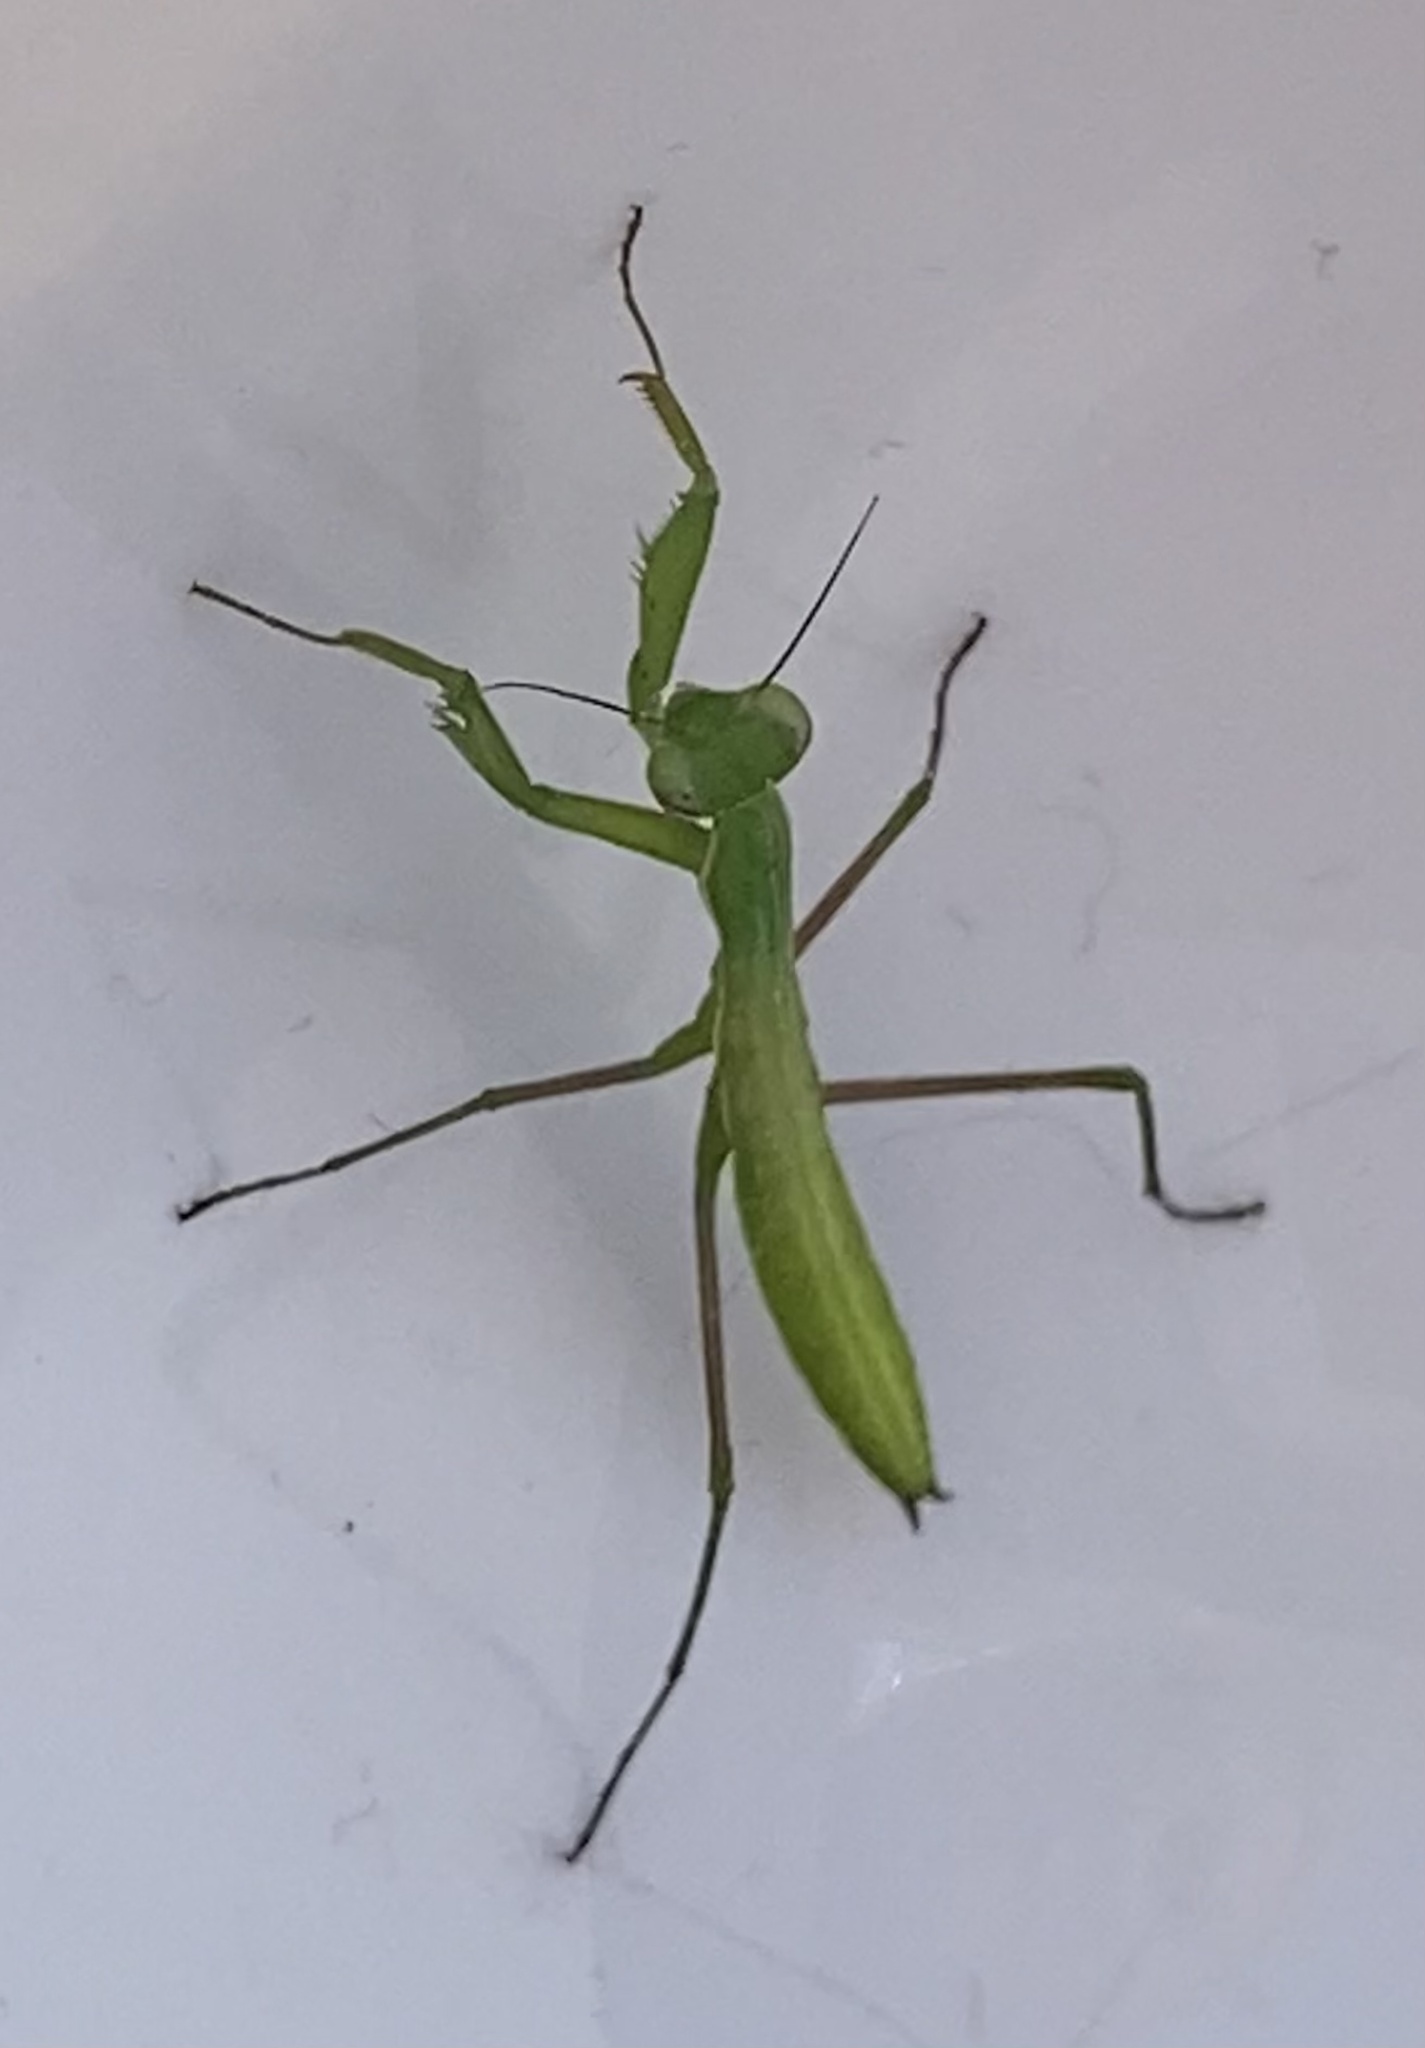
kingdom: Animalia
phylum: Arthropoda
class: Insecta
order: Mantodea
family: Mantidae
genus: Mantis
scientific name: Mantis religiosa
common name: Praying mantis
